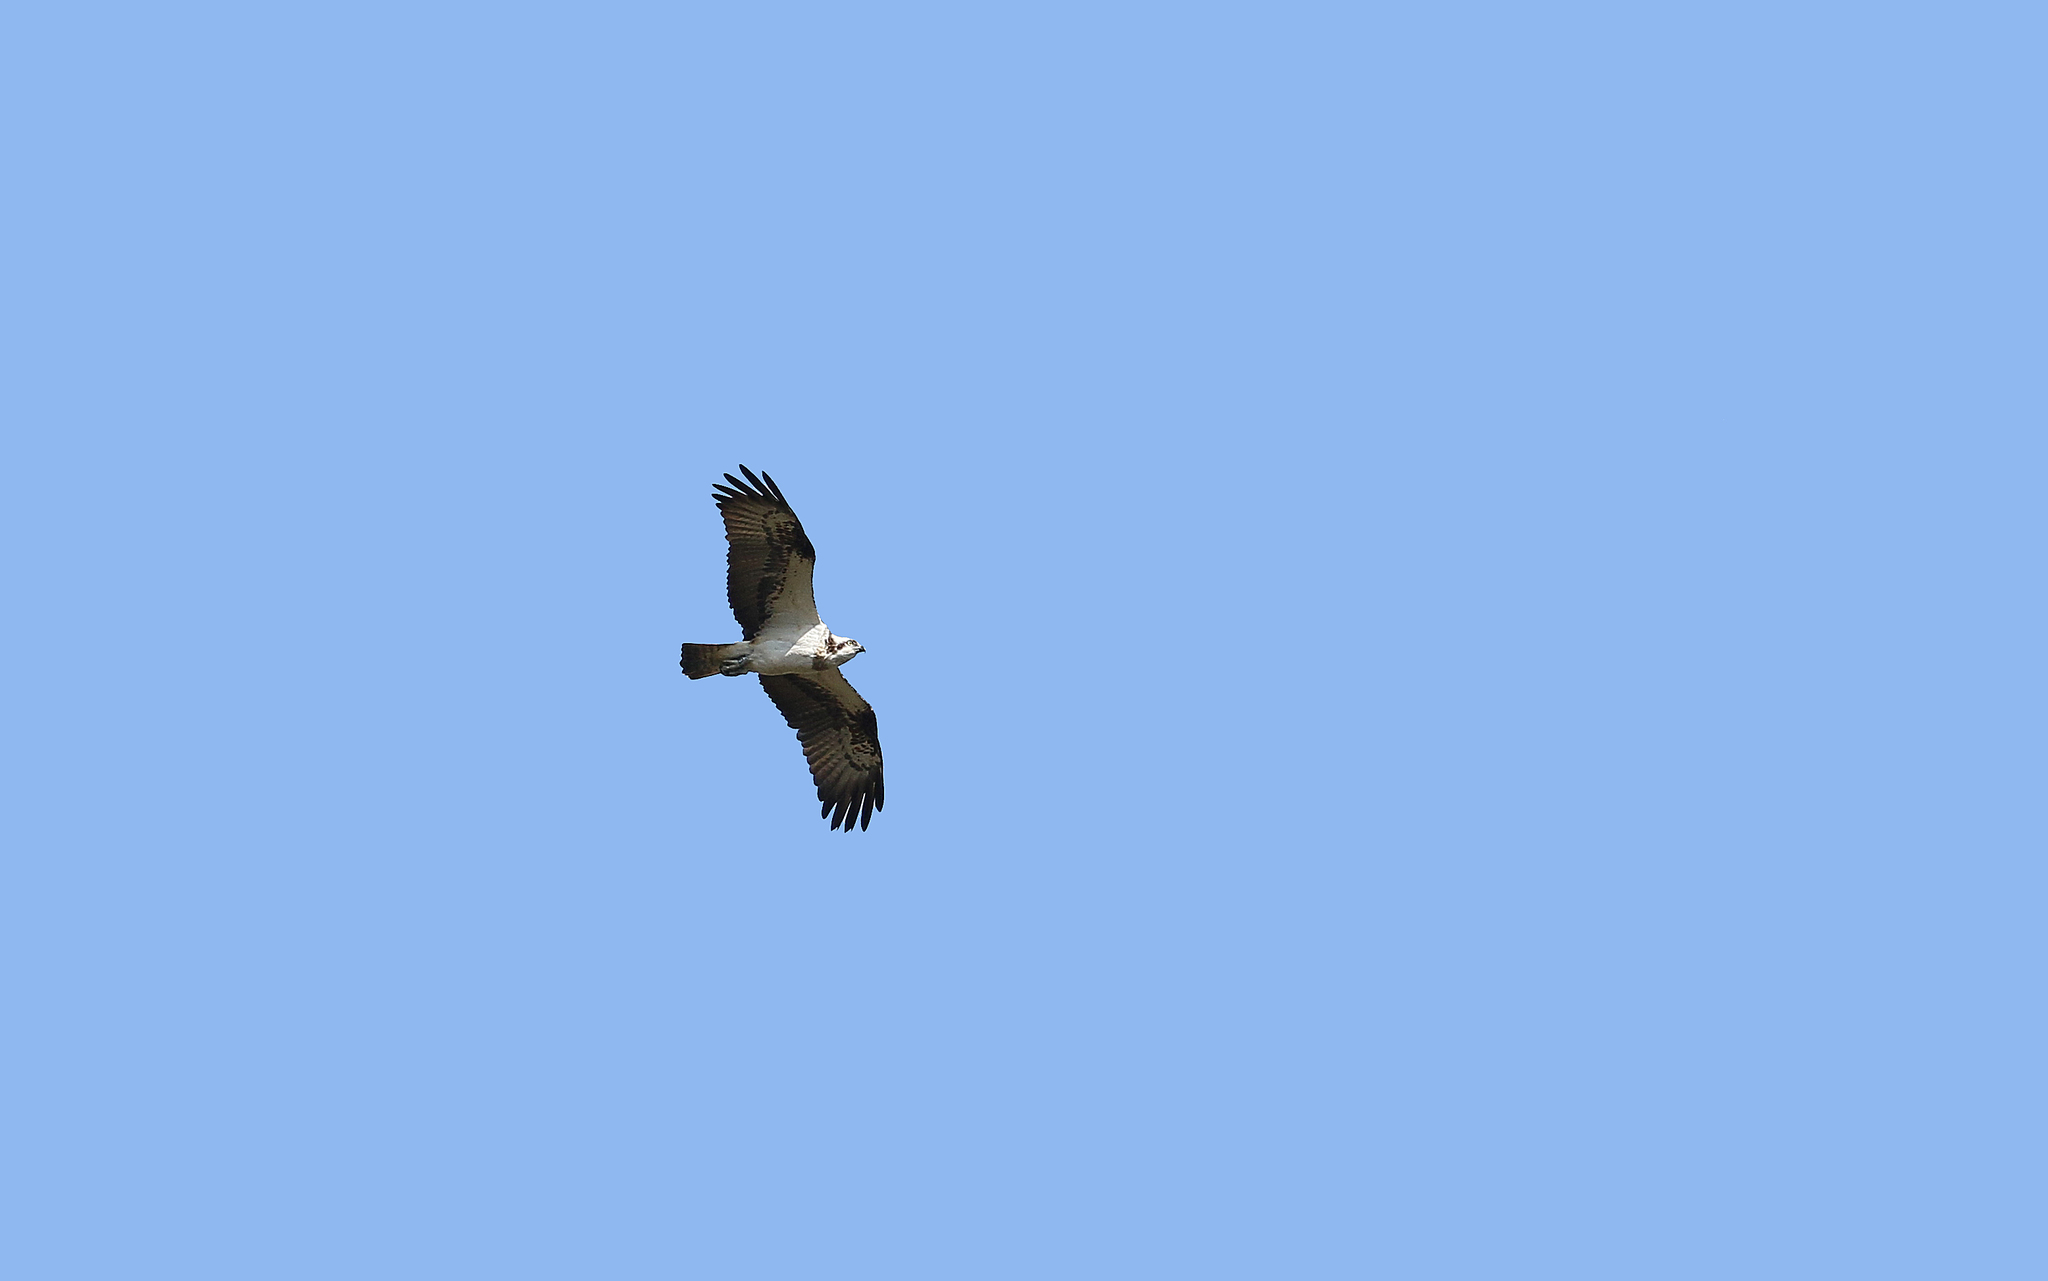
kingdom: Animalia
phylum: Chordata
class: Aves
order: Accipitriformes
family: Pandionidae
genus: Pandion
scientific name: Pandion haliaetus
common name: Osprey
